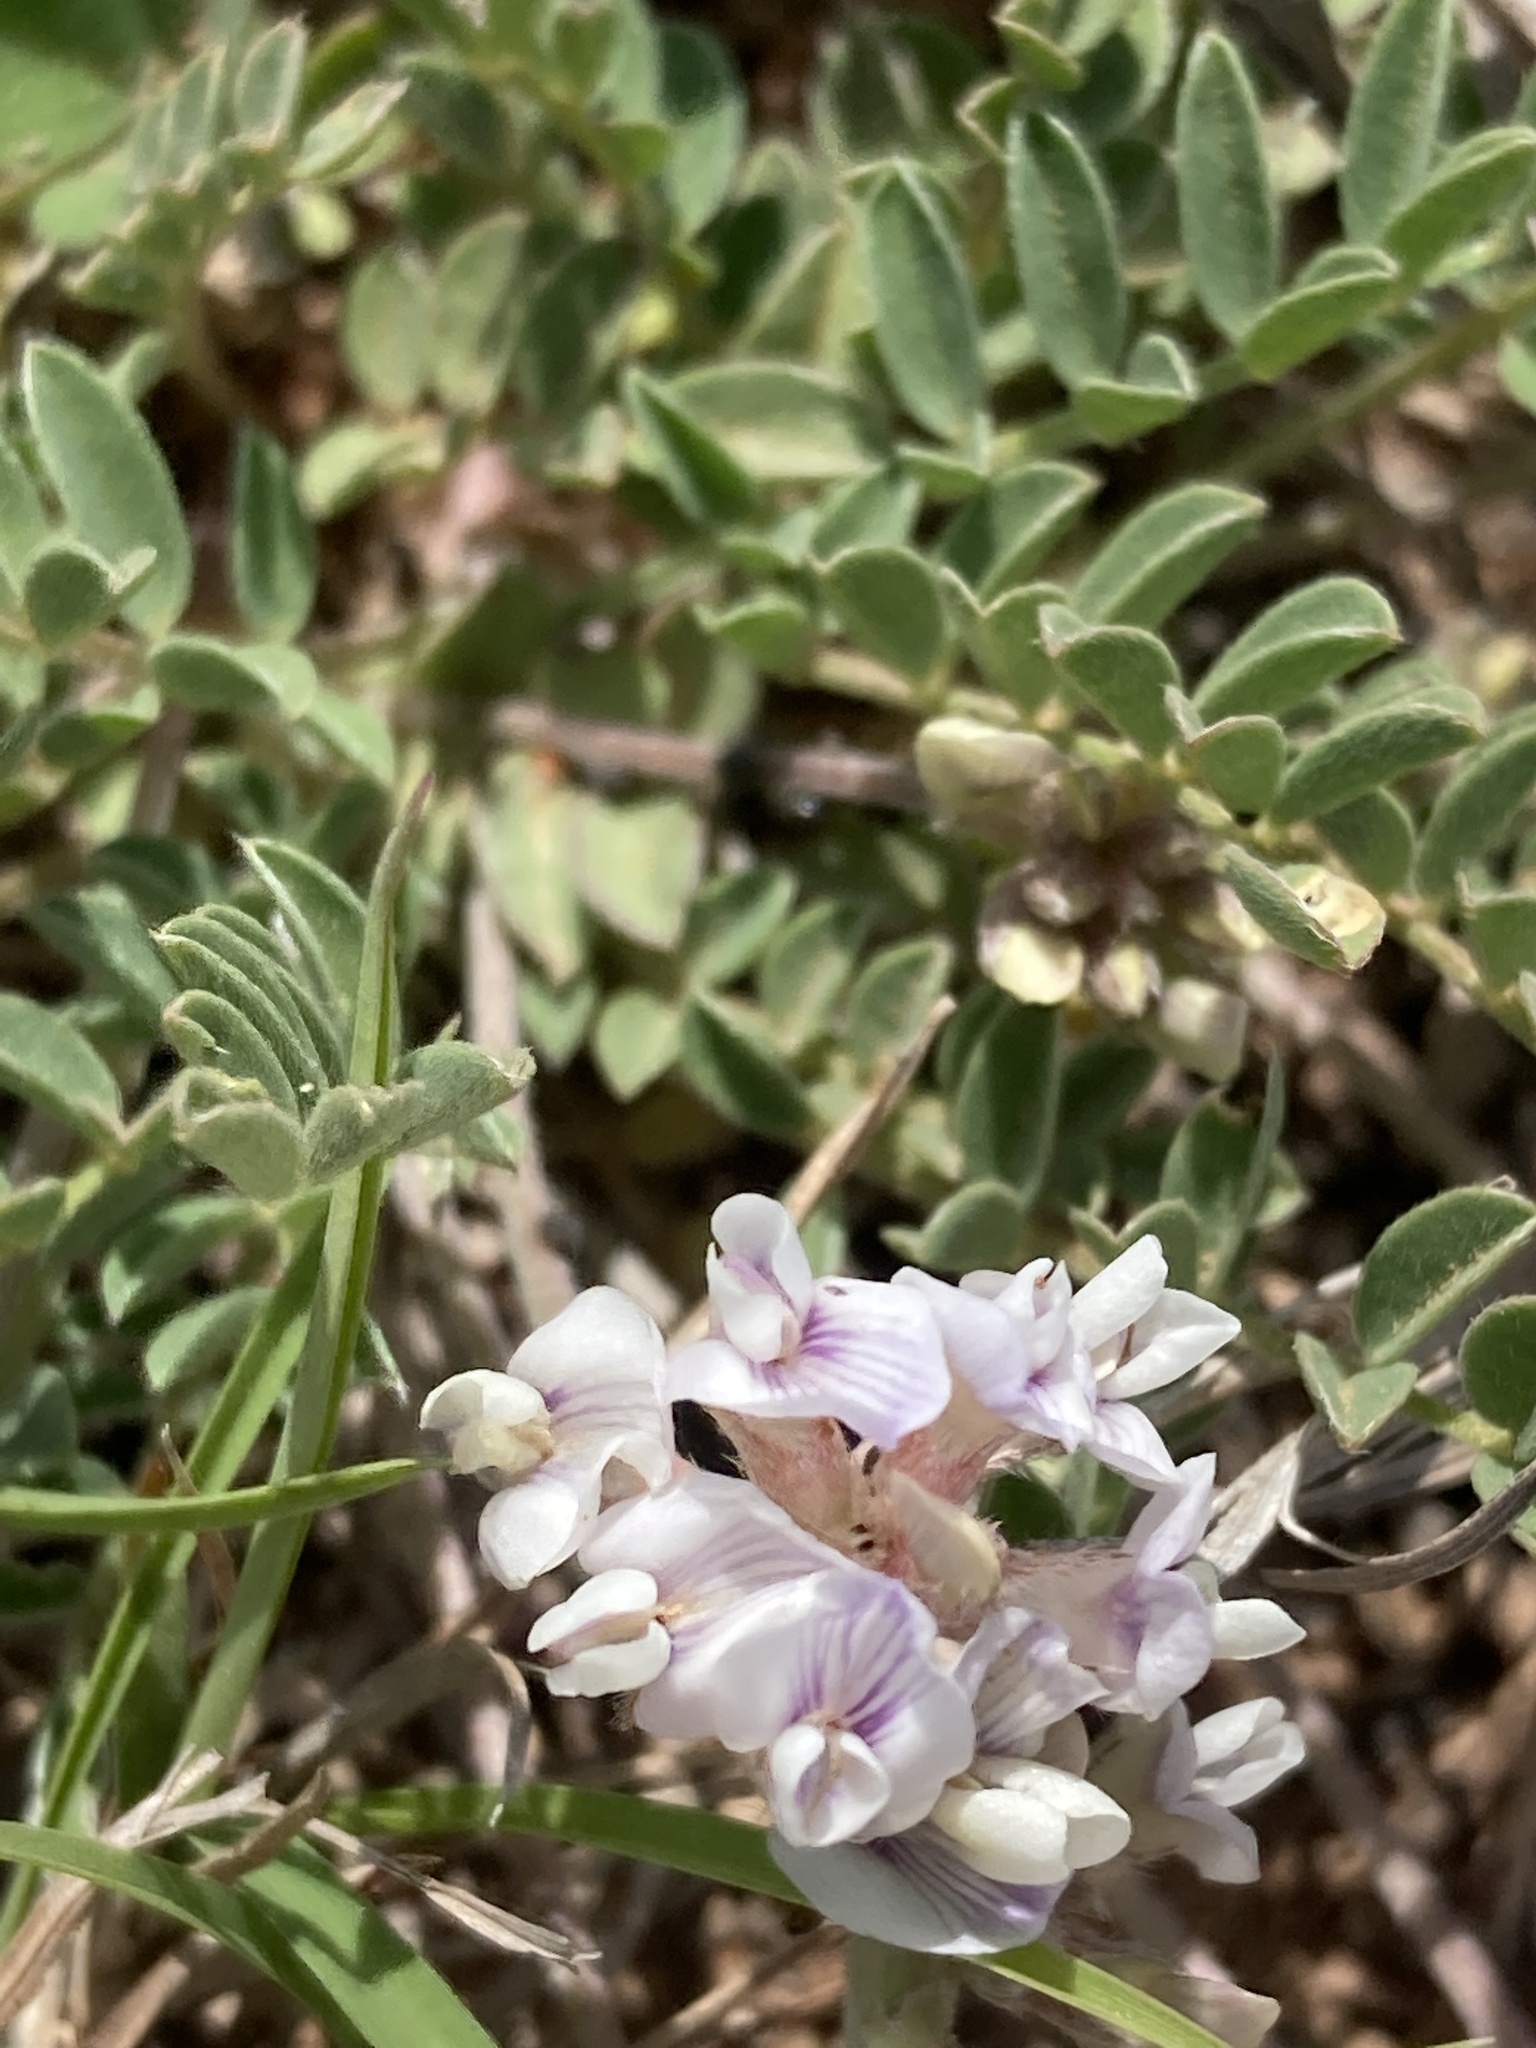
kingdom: Plantae
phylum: Tracheophyta
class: Magnoliopsida
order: Fabales
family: Fabaceae
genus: Astragalus
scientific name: Astragalus lotiflorus
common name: Lotus milk-vetch
